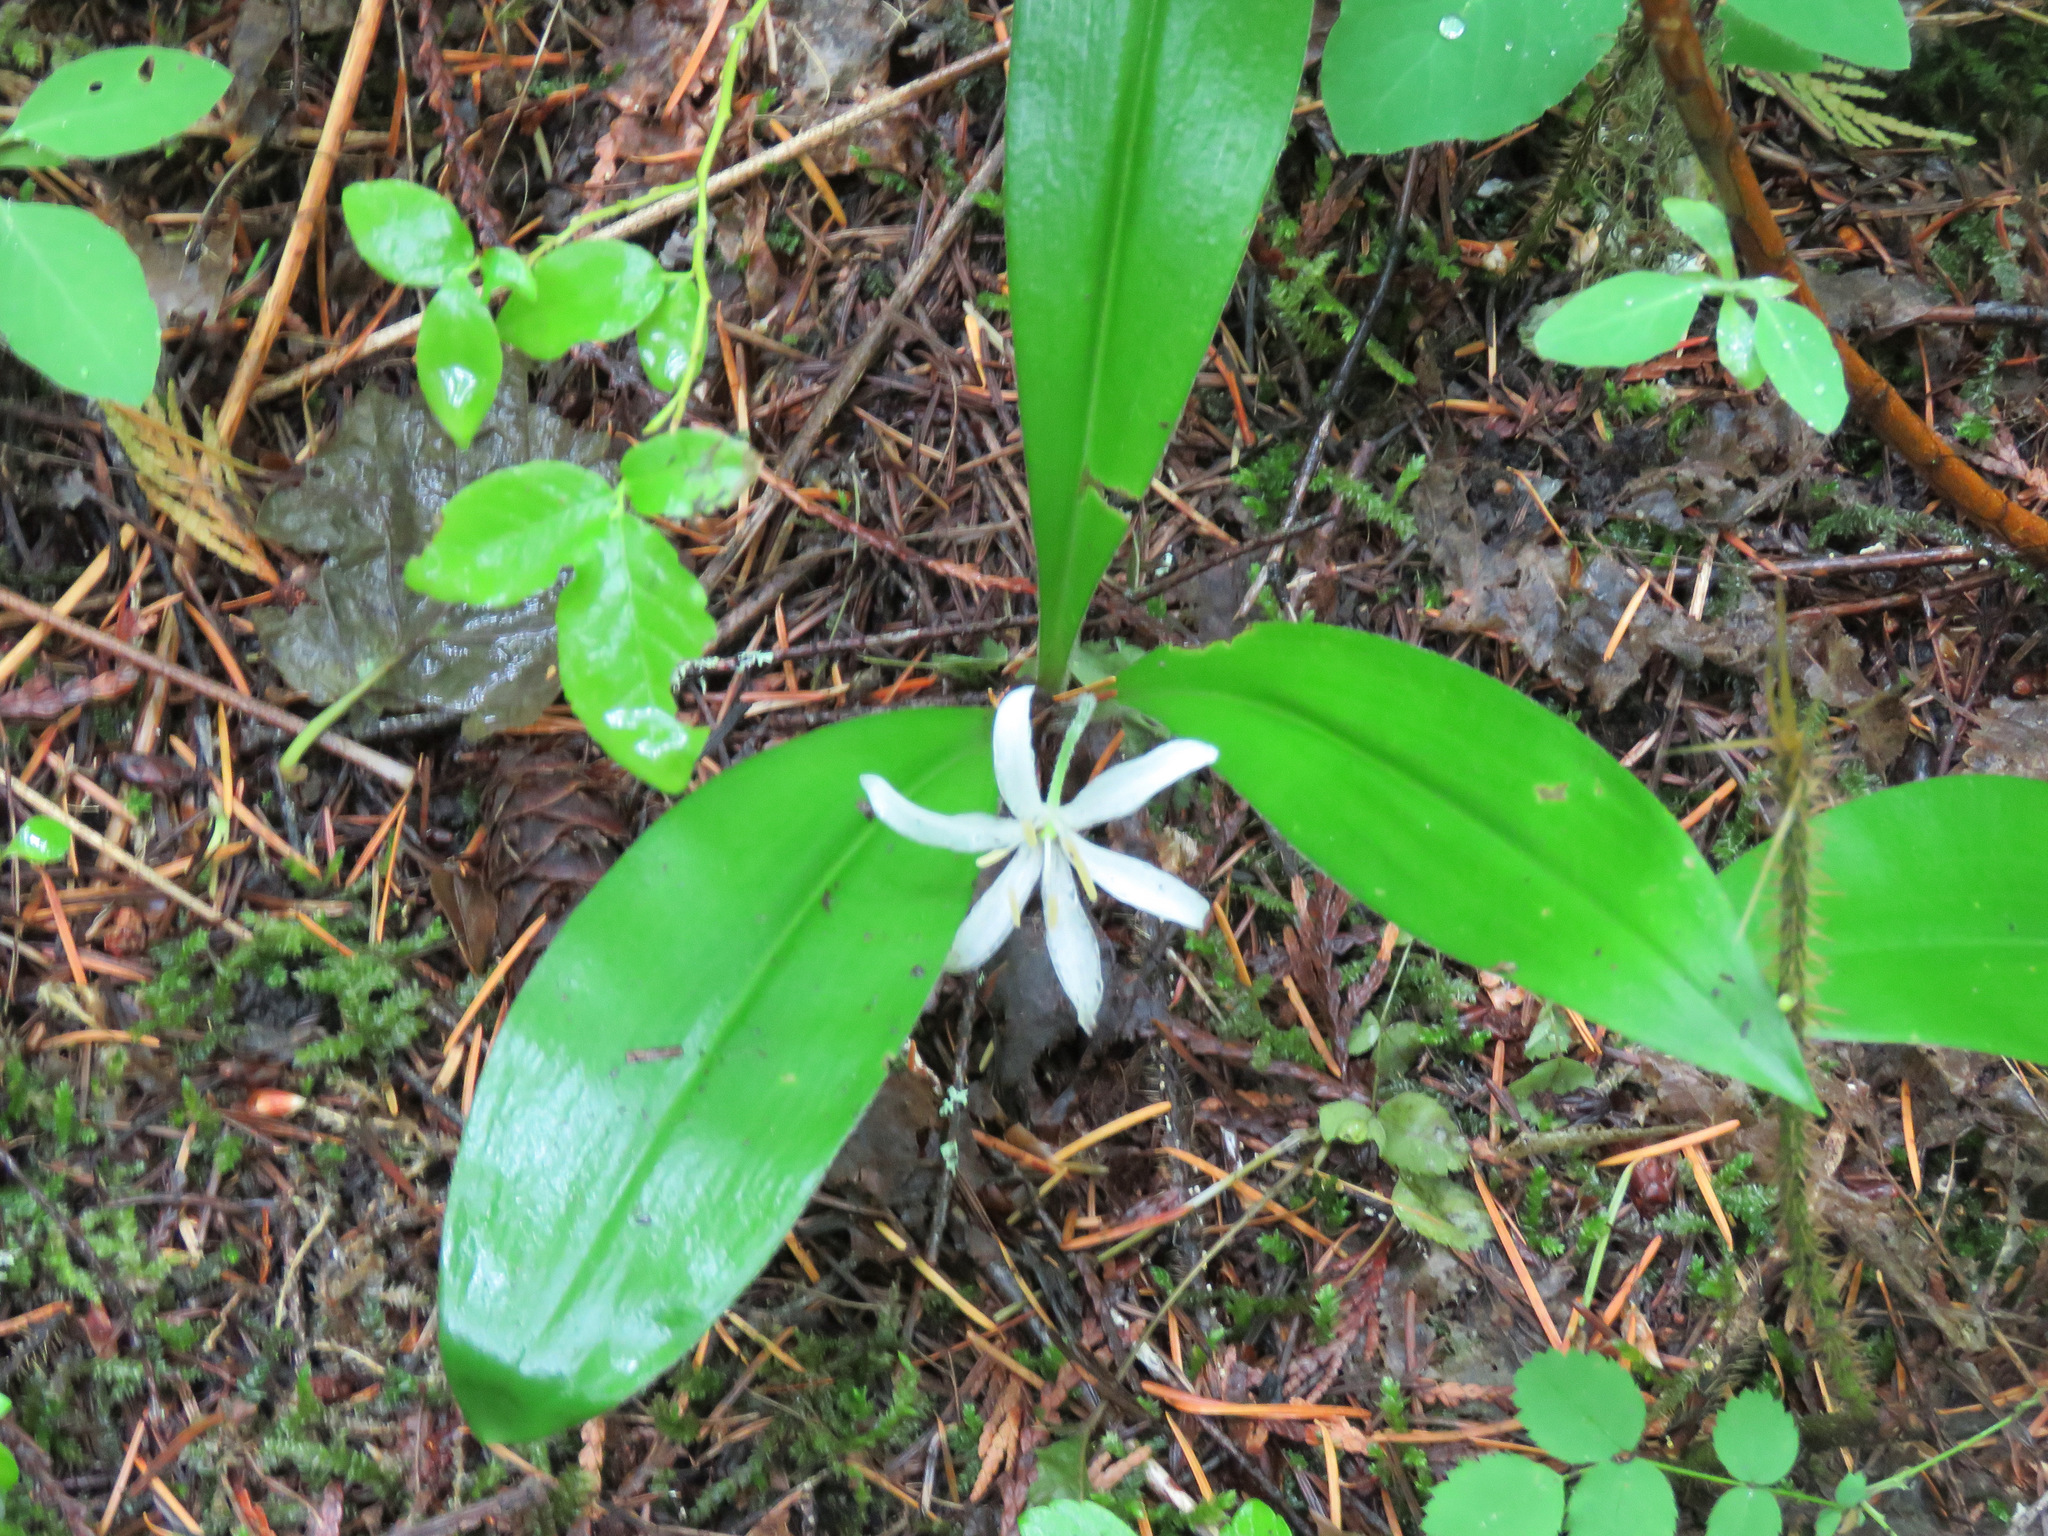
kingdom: Plantae
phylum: Tracheophyta
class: Liliopsida
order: Liliales
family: Liliaceae
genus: Clintonia
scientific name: Clintonia uniflora
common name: Queen's cup
